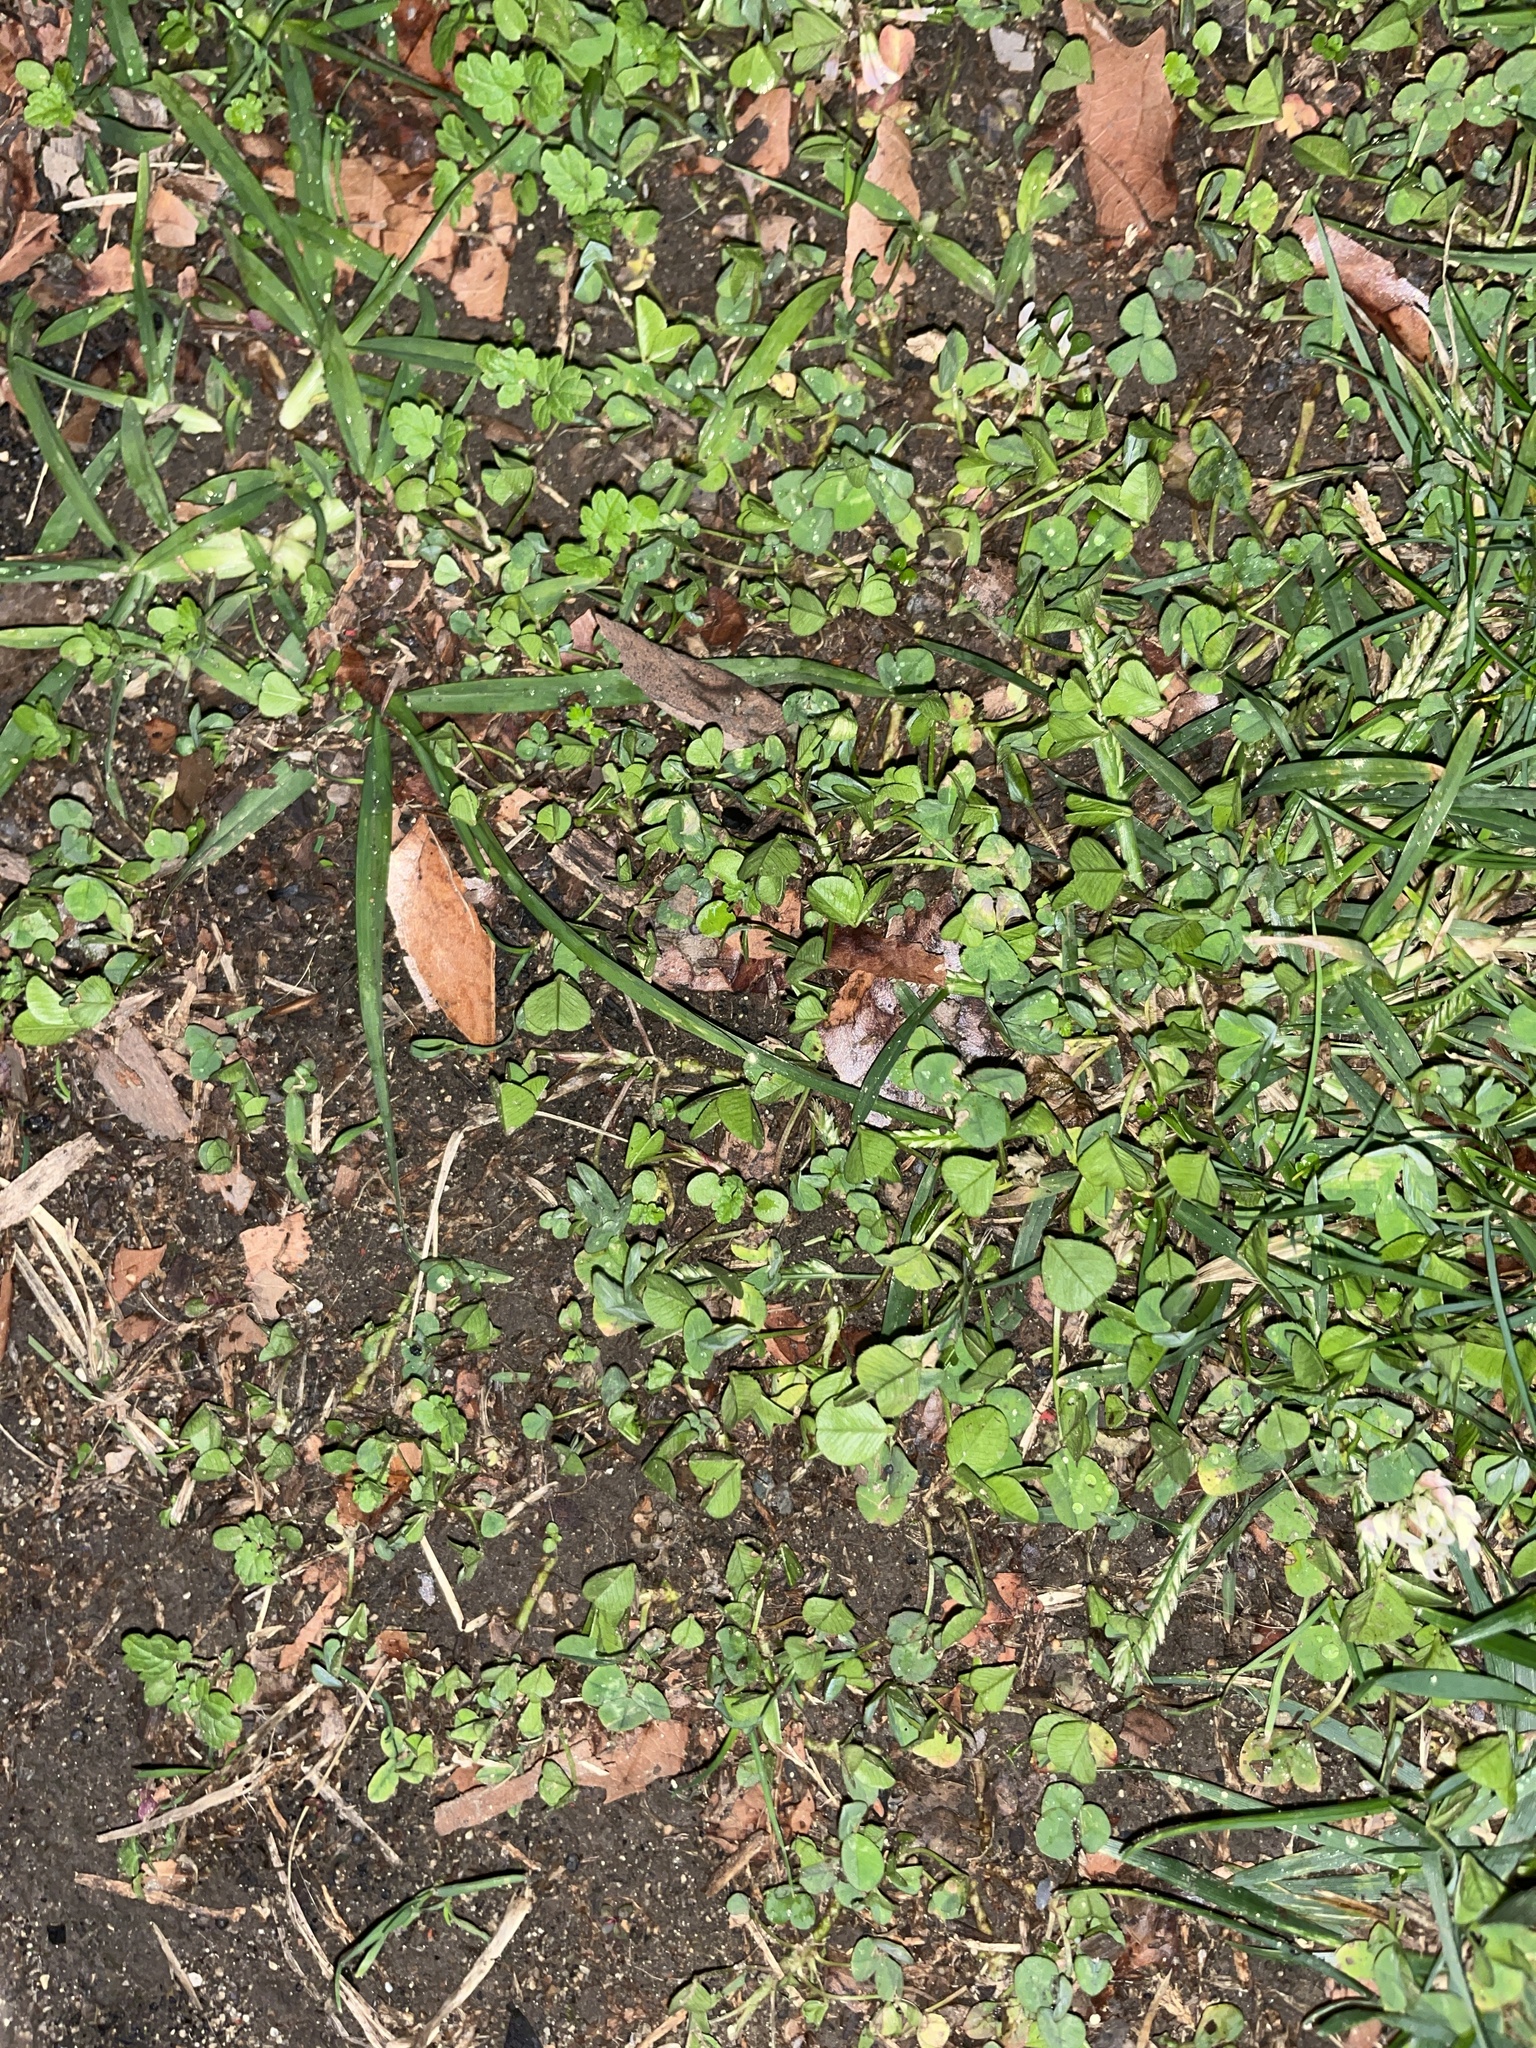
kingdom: Plantae
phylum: Tracheophyta
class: Magnoliopsida
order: Fabales
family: Fabaceae
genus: Trifolium
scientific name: Trifolium repens
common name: White clover
